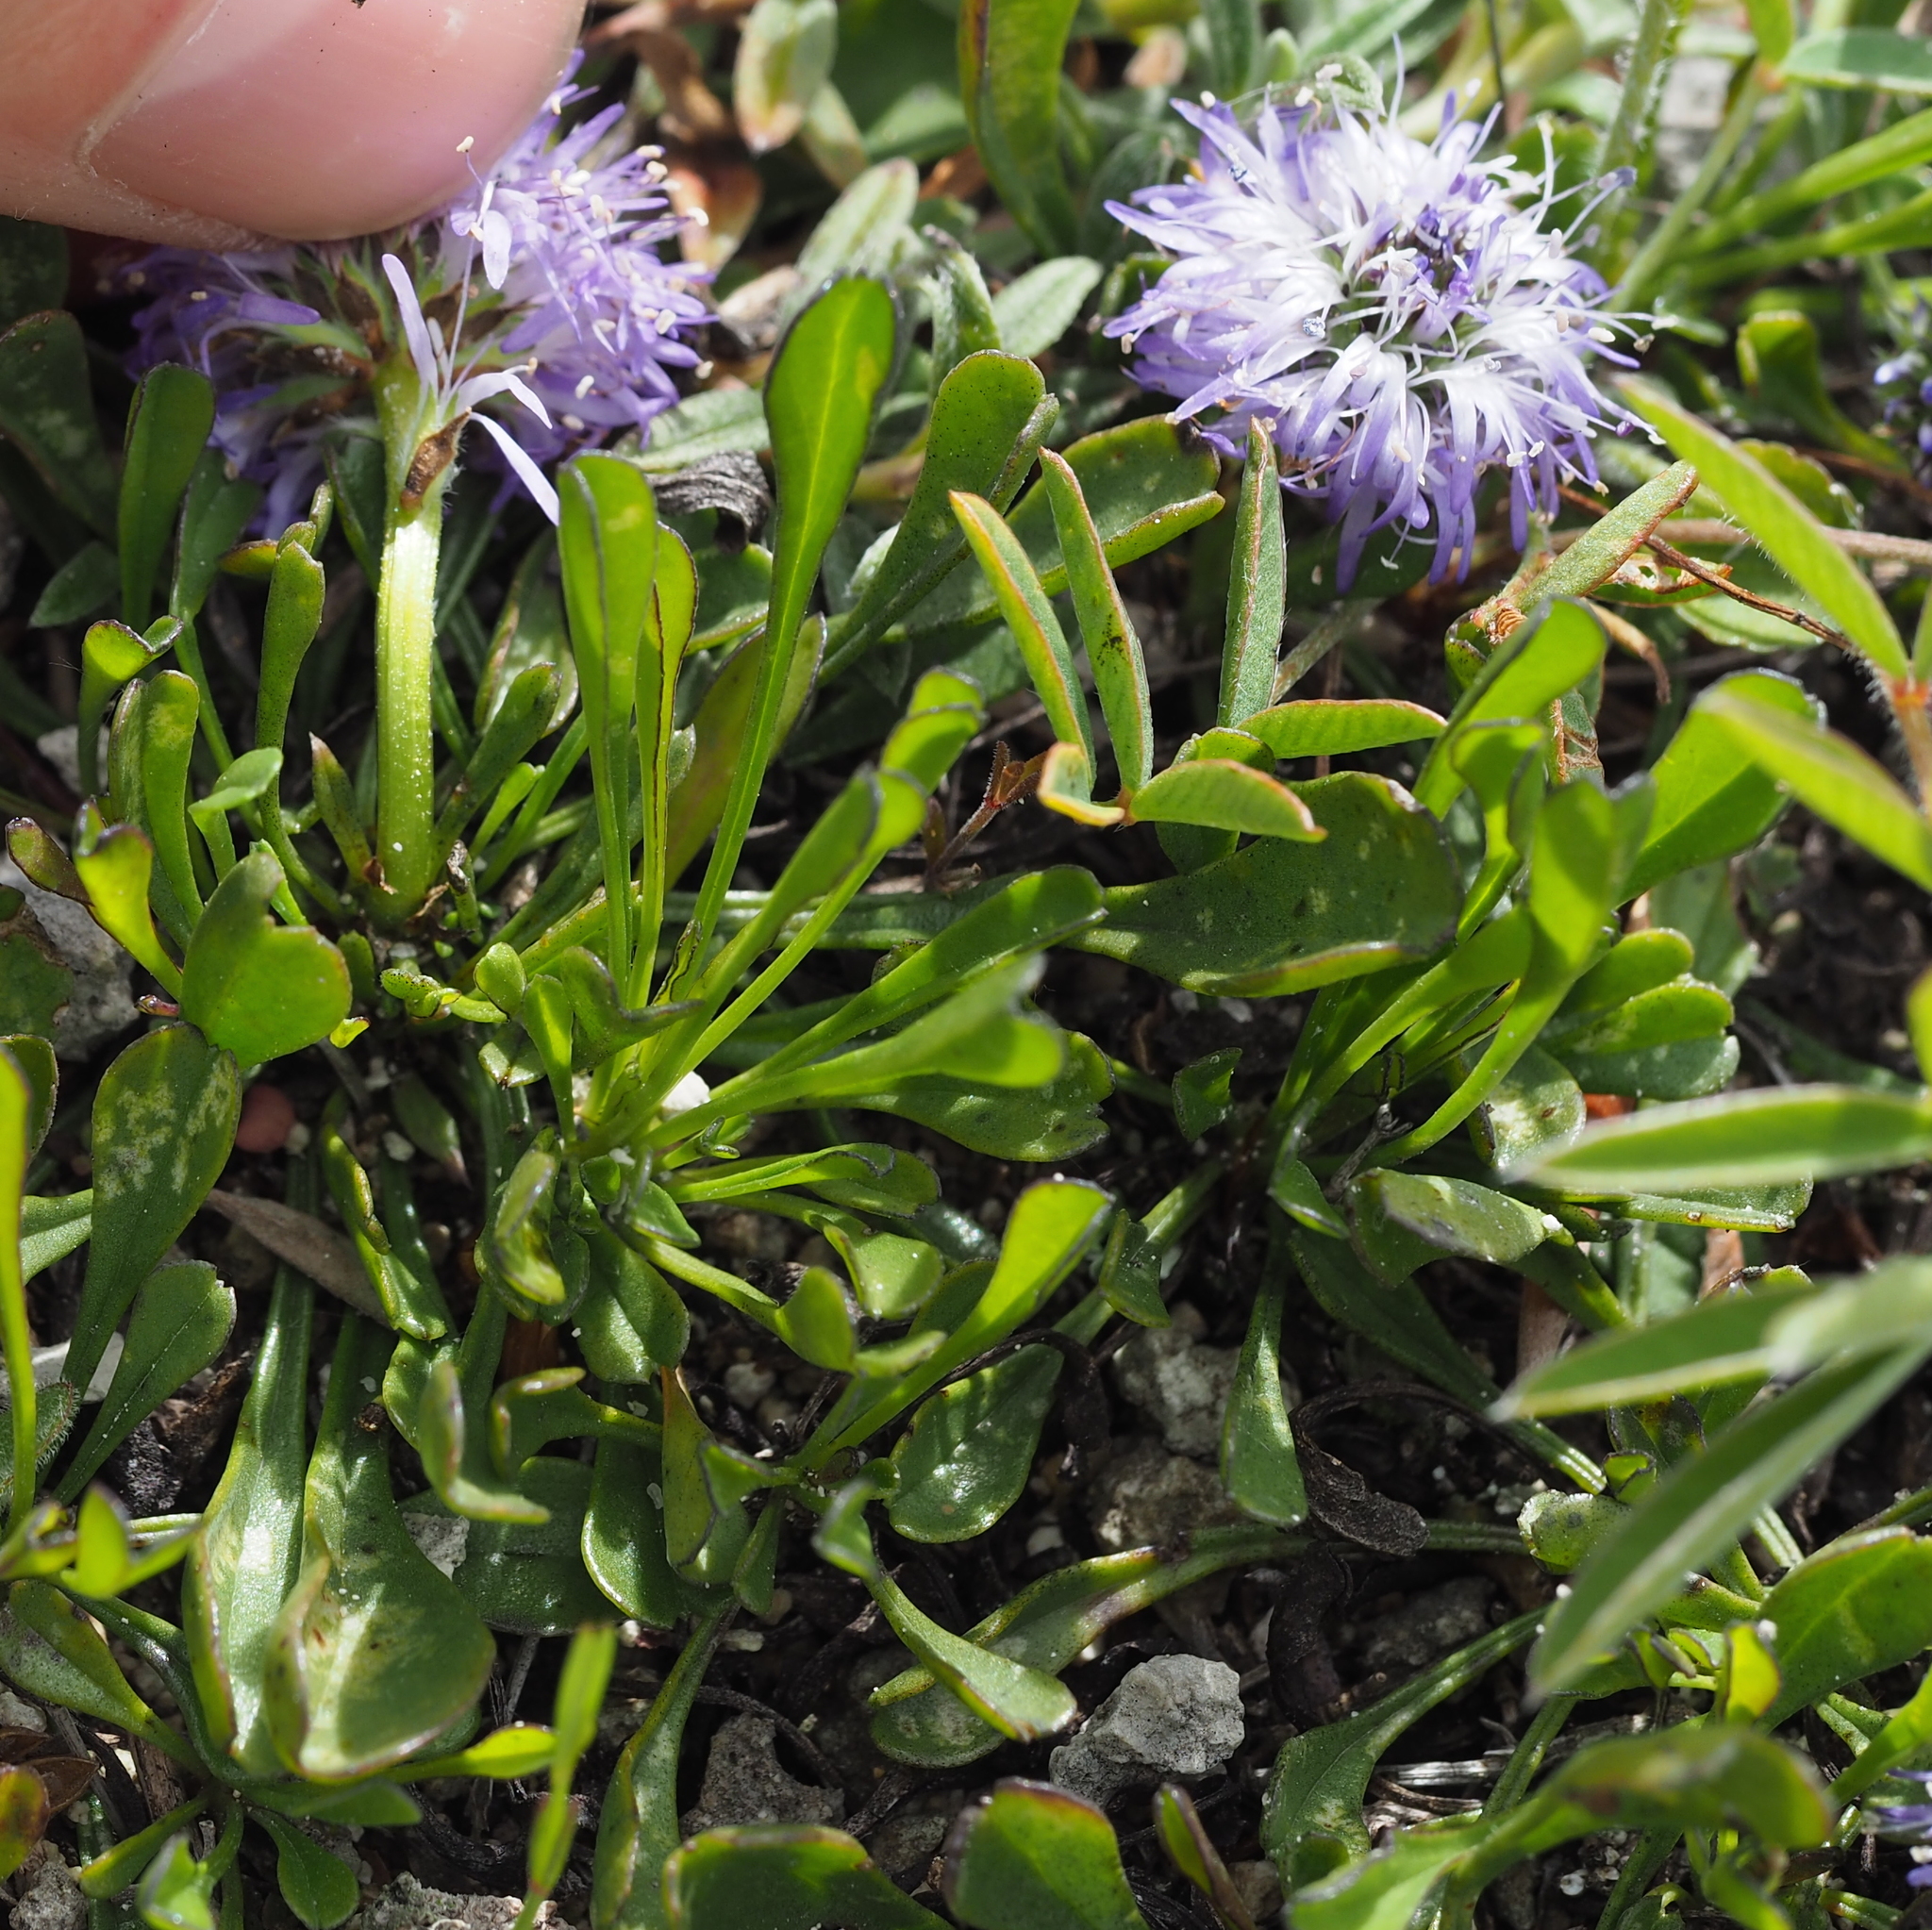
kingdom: Plantae
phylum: Tracheophyta
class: Magnoliopsida
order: Lamiales
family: Plantaginaceae
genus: Globularia
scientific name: Globularia cordifolia
